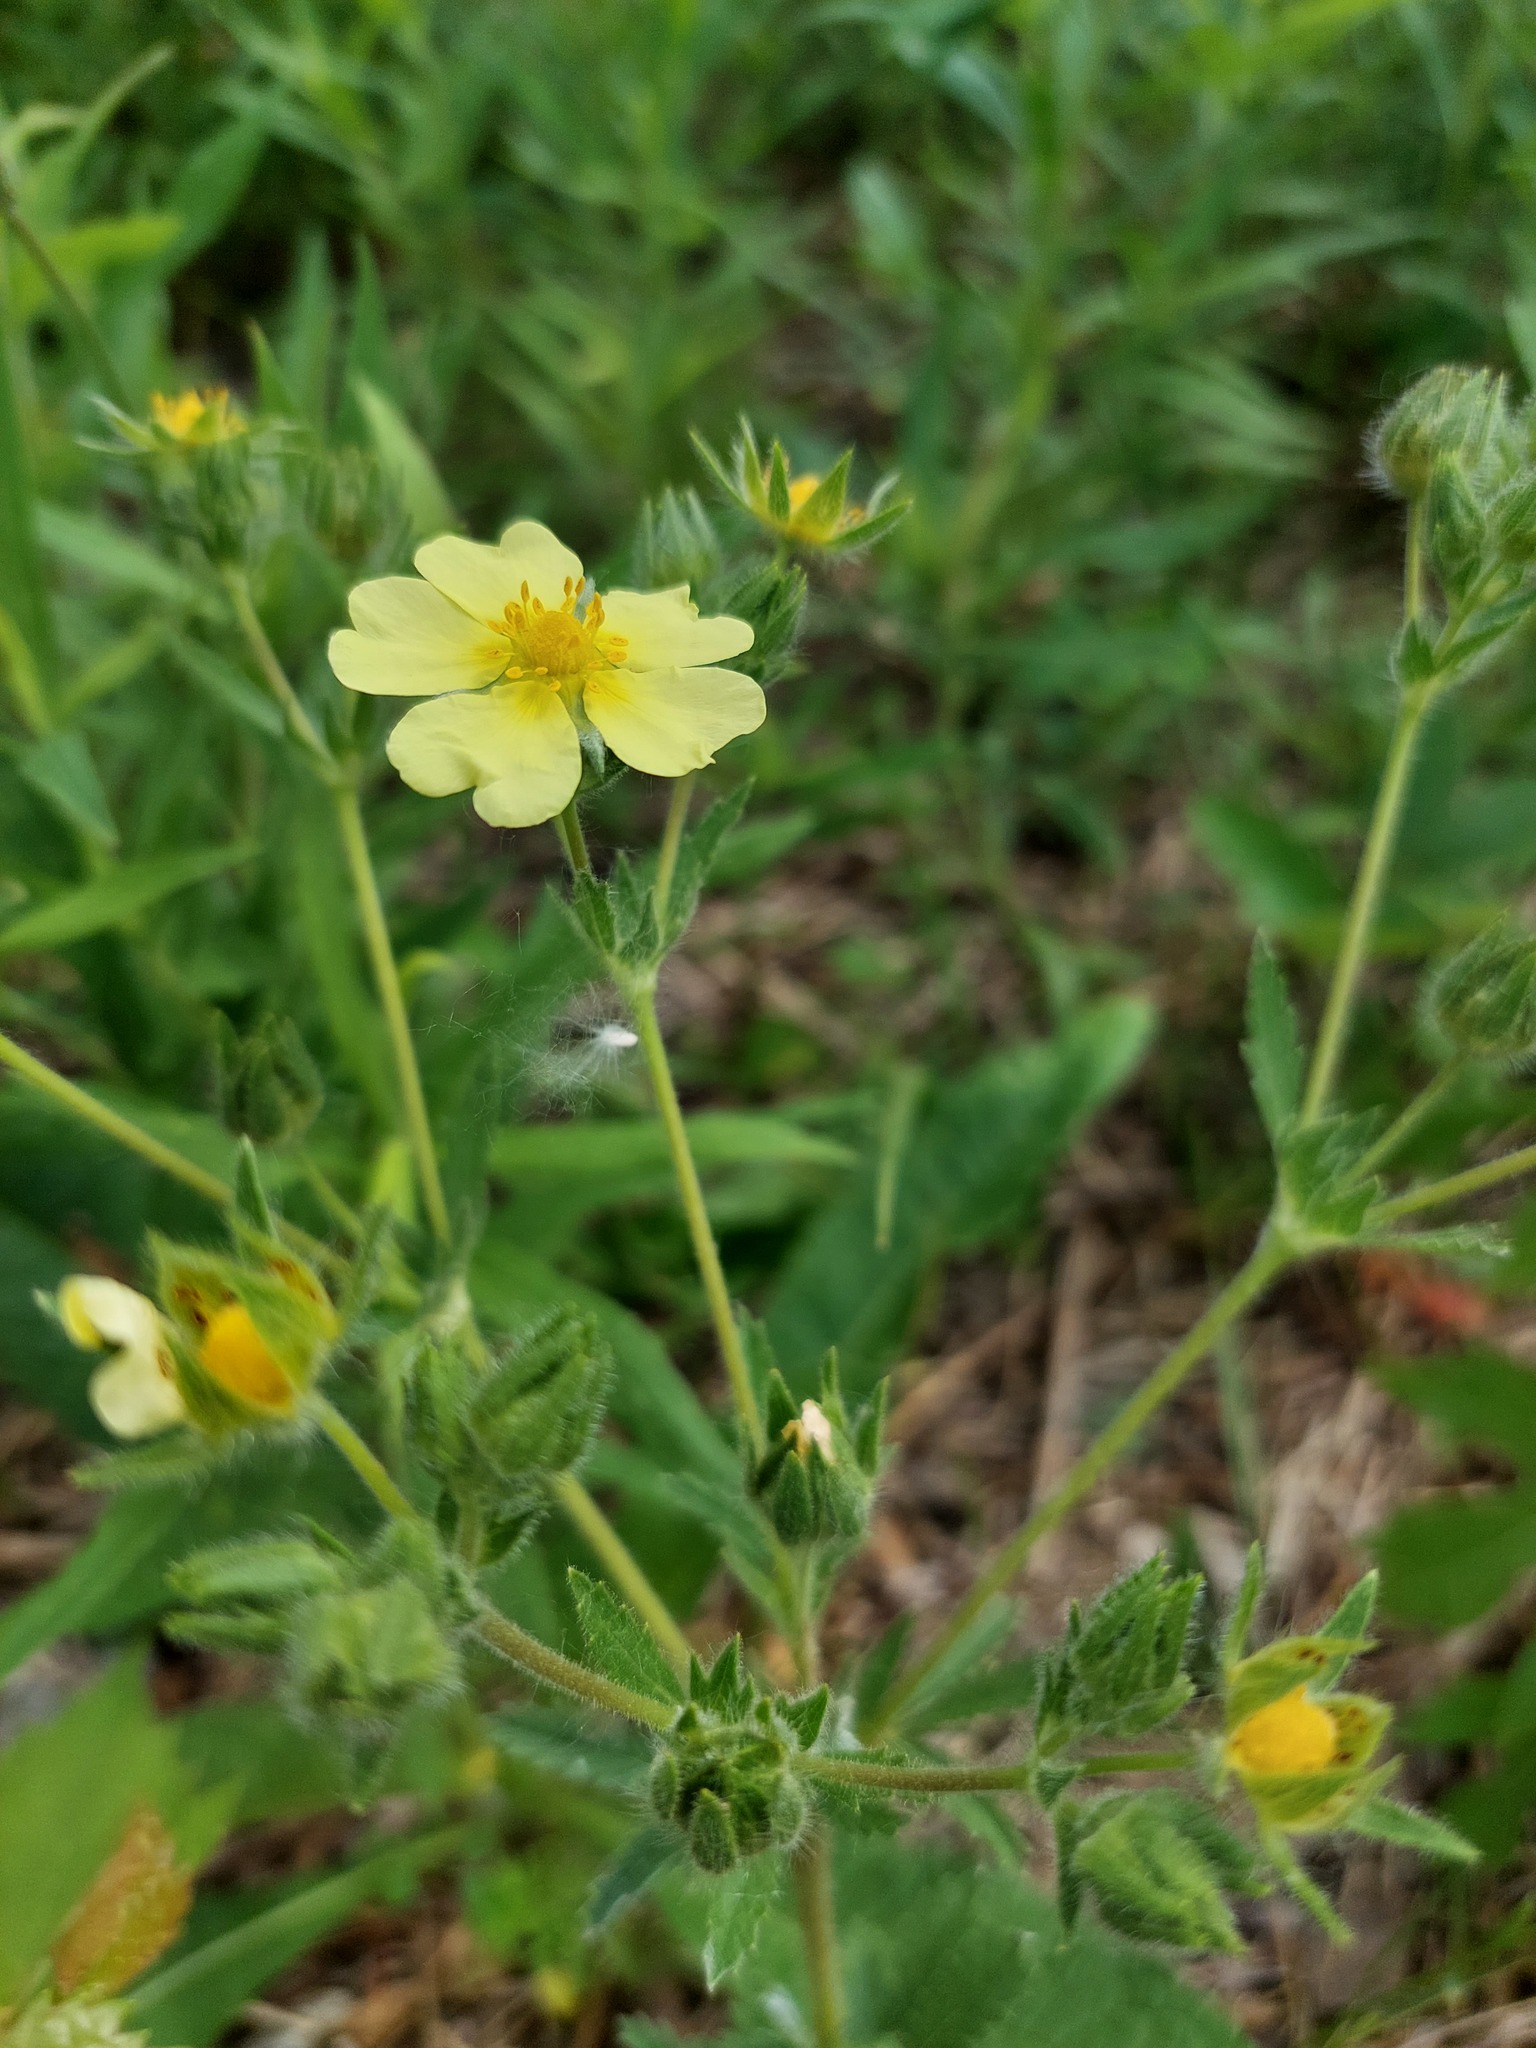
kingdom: Plantae
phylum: Tracheophyta
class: Magnoliopsida
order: Rosales
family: Rosaceae
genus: Potentilla
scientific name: Potentilla recta
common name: Sulphur cinquefoil
